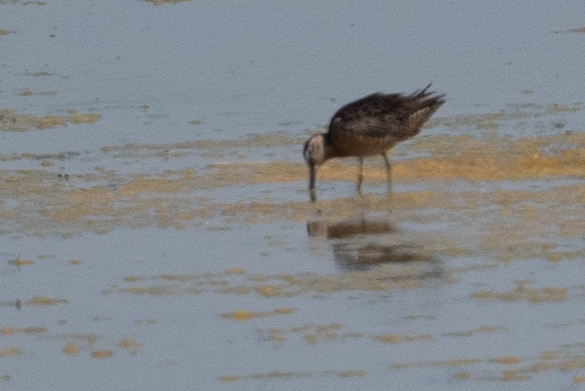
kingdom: Animalia
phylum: Chordata
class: Aves
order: Charadriiformes
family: Scolopacidae
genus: Limnodromus
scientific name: Limnodromus scolopaceus
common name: Long-billed dowitcher
